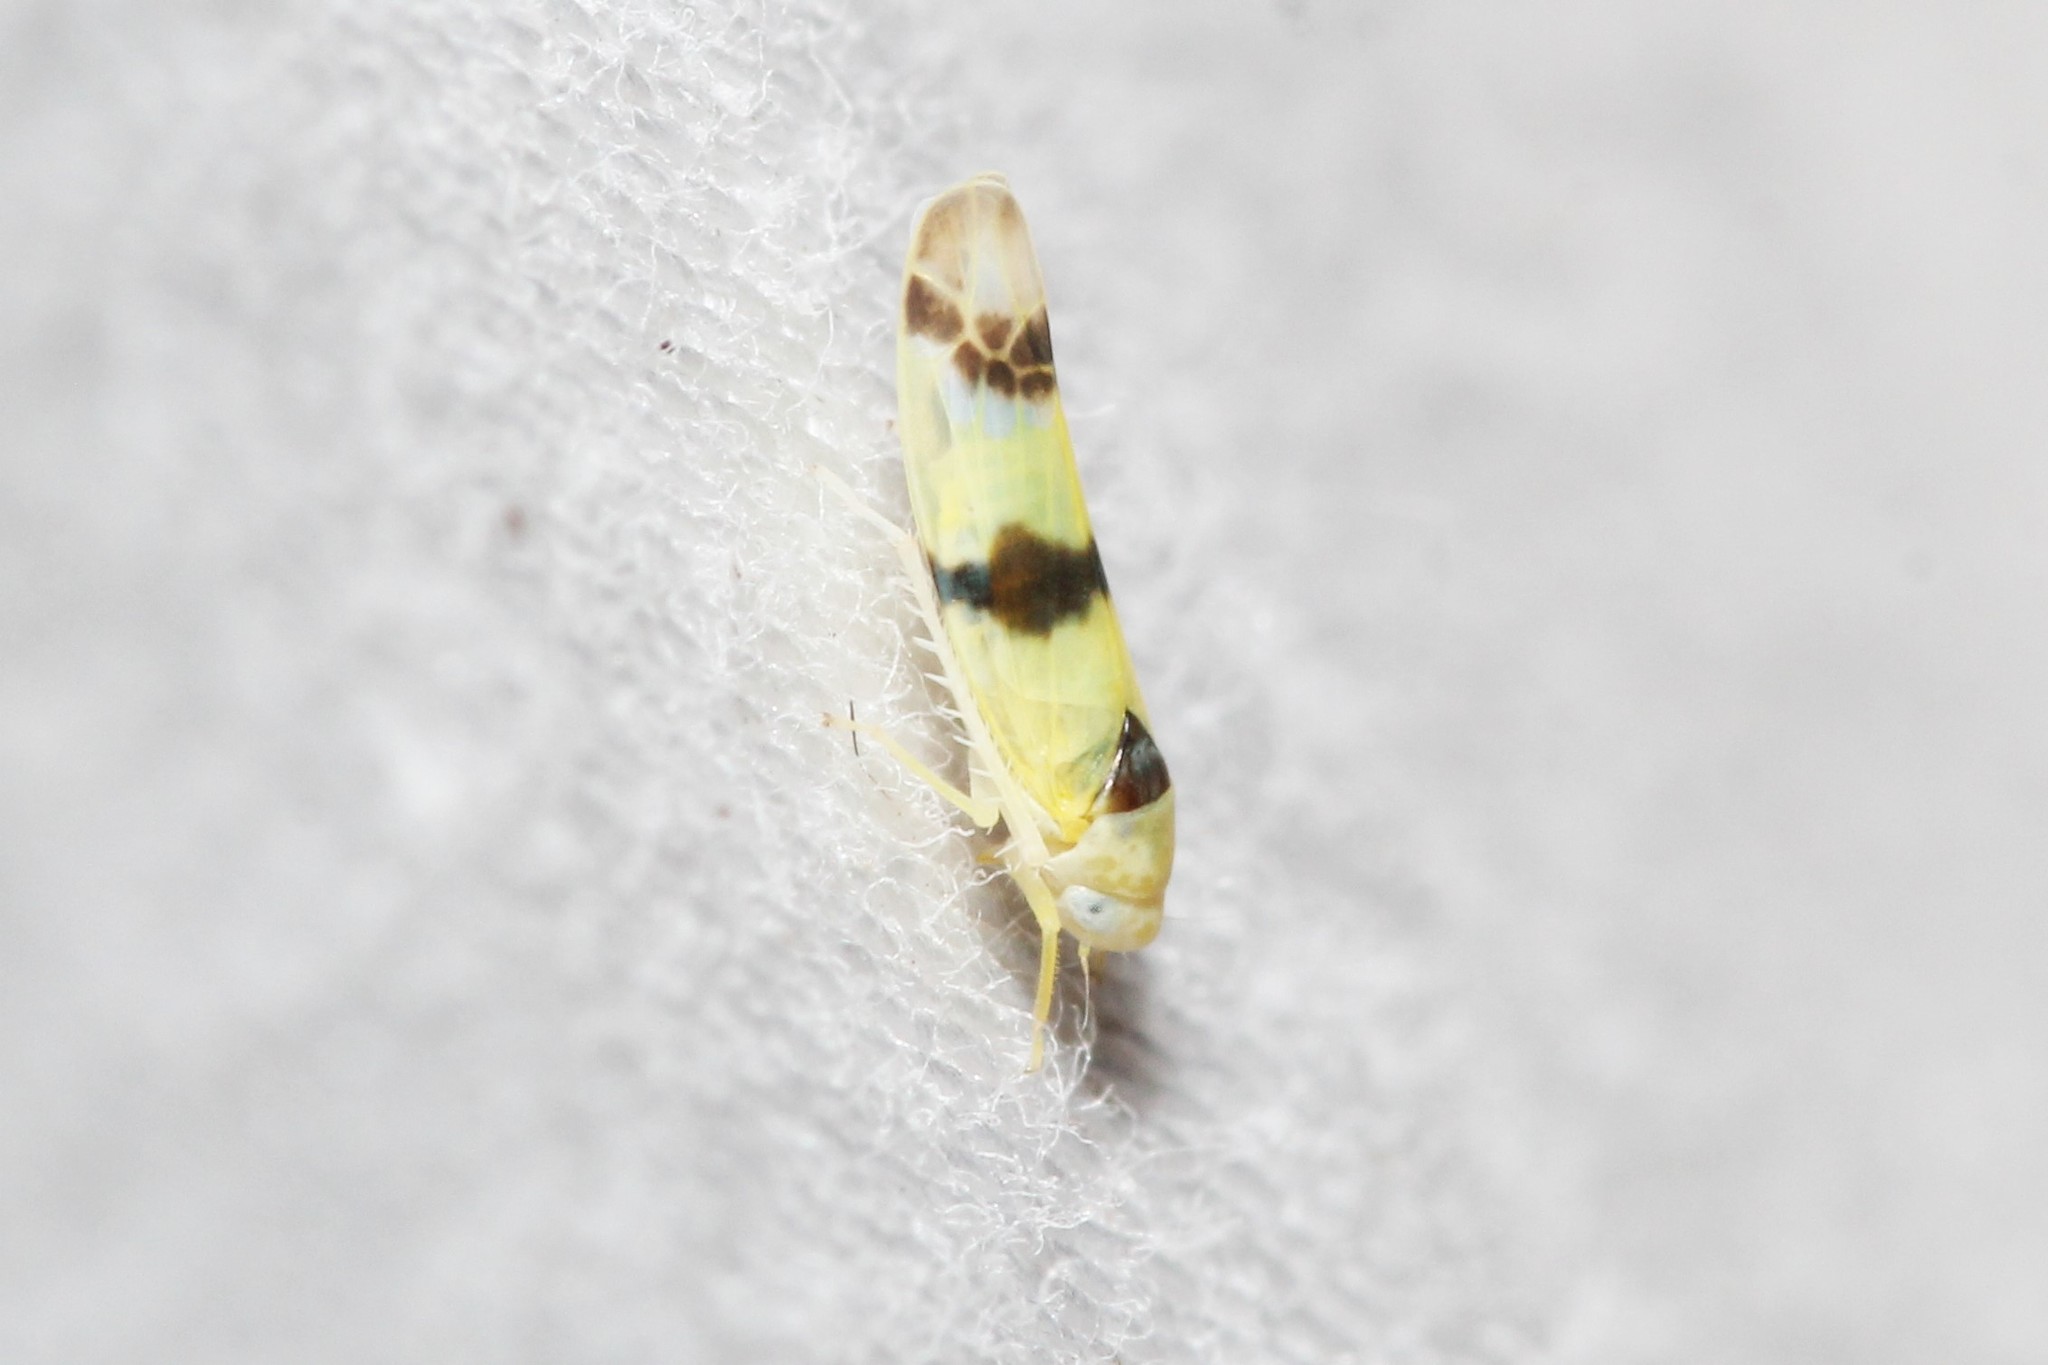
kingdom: Animalia
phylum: Arthropoda
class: Insecta
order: Hemiptera
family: Cicadellidae
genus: Empoa
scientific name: Empoa gillettei
